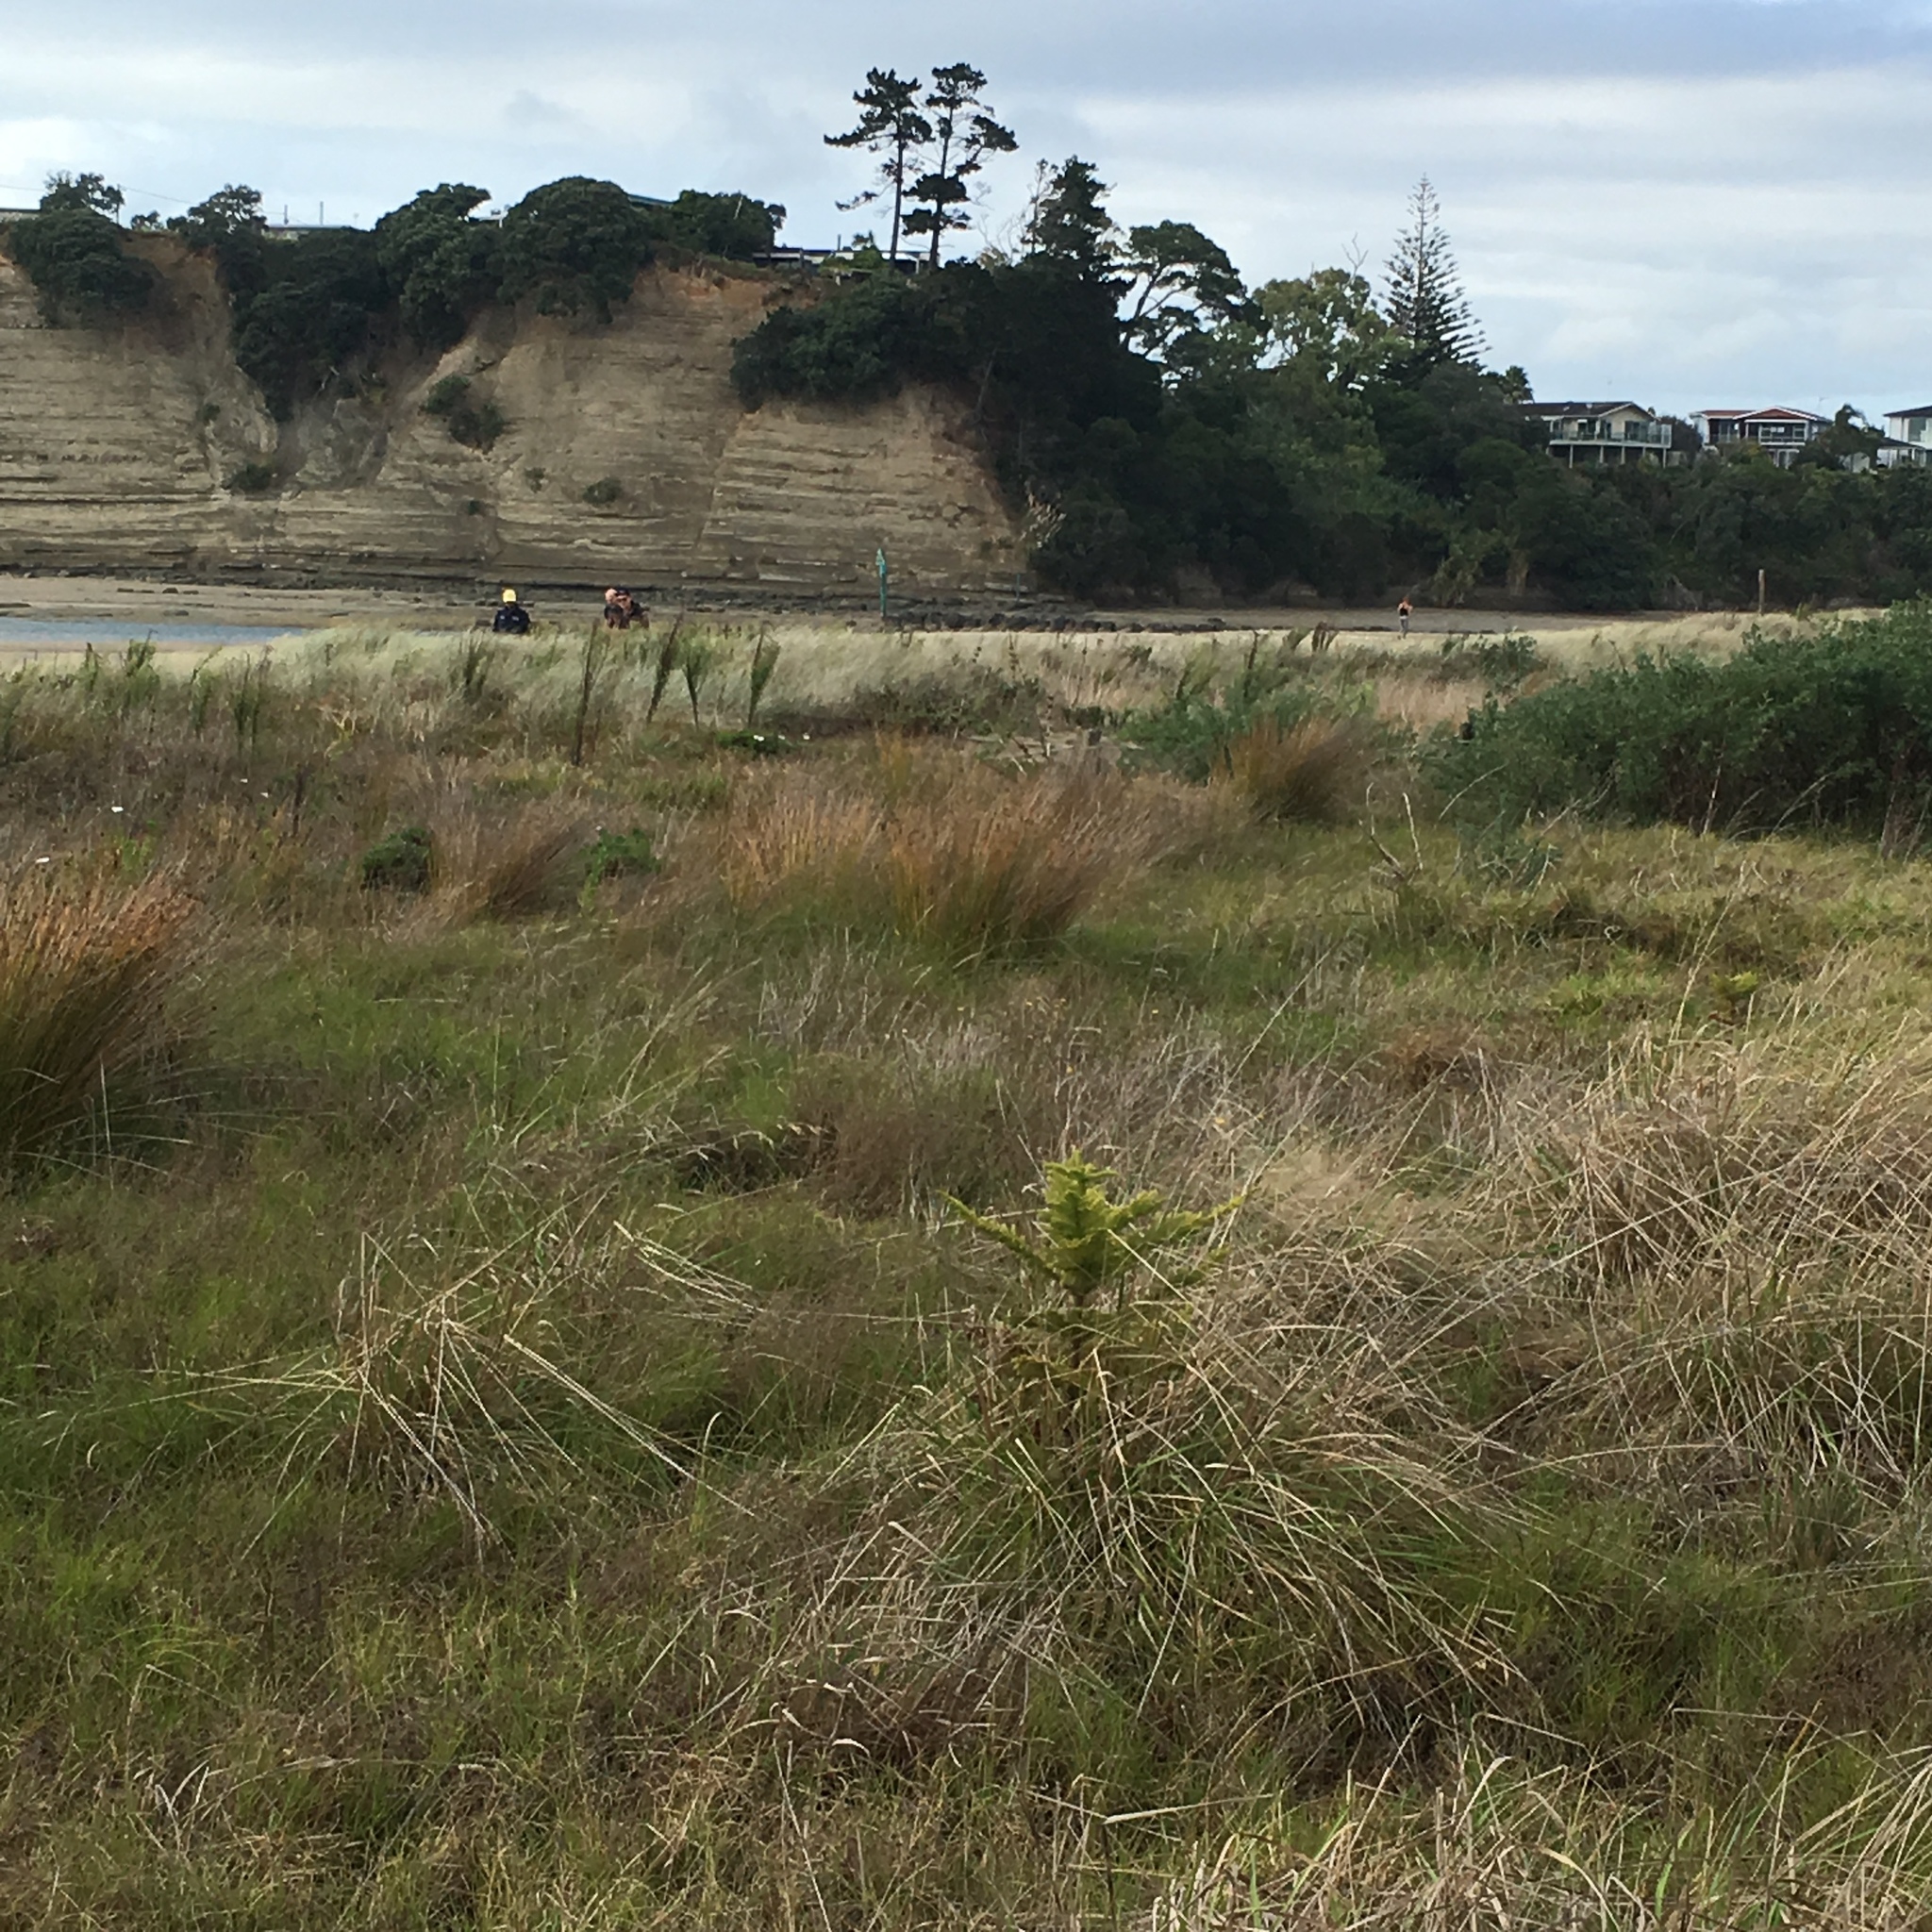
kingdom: Plantae
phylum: Tracheophyta
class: Pinopsida
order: Pinales
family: Araucariaceae
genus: Araucaria
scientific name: Araucaria heterophylla
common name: Norfolk island pine
